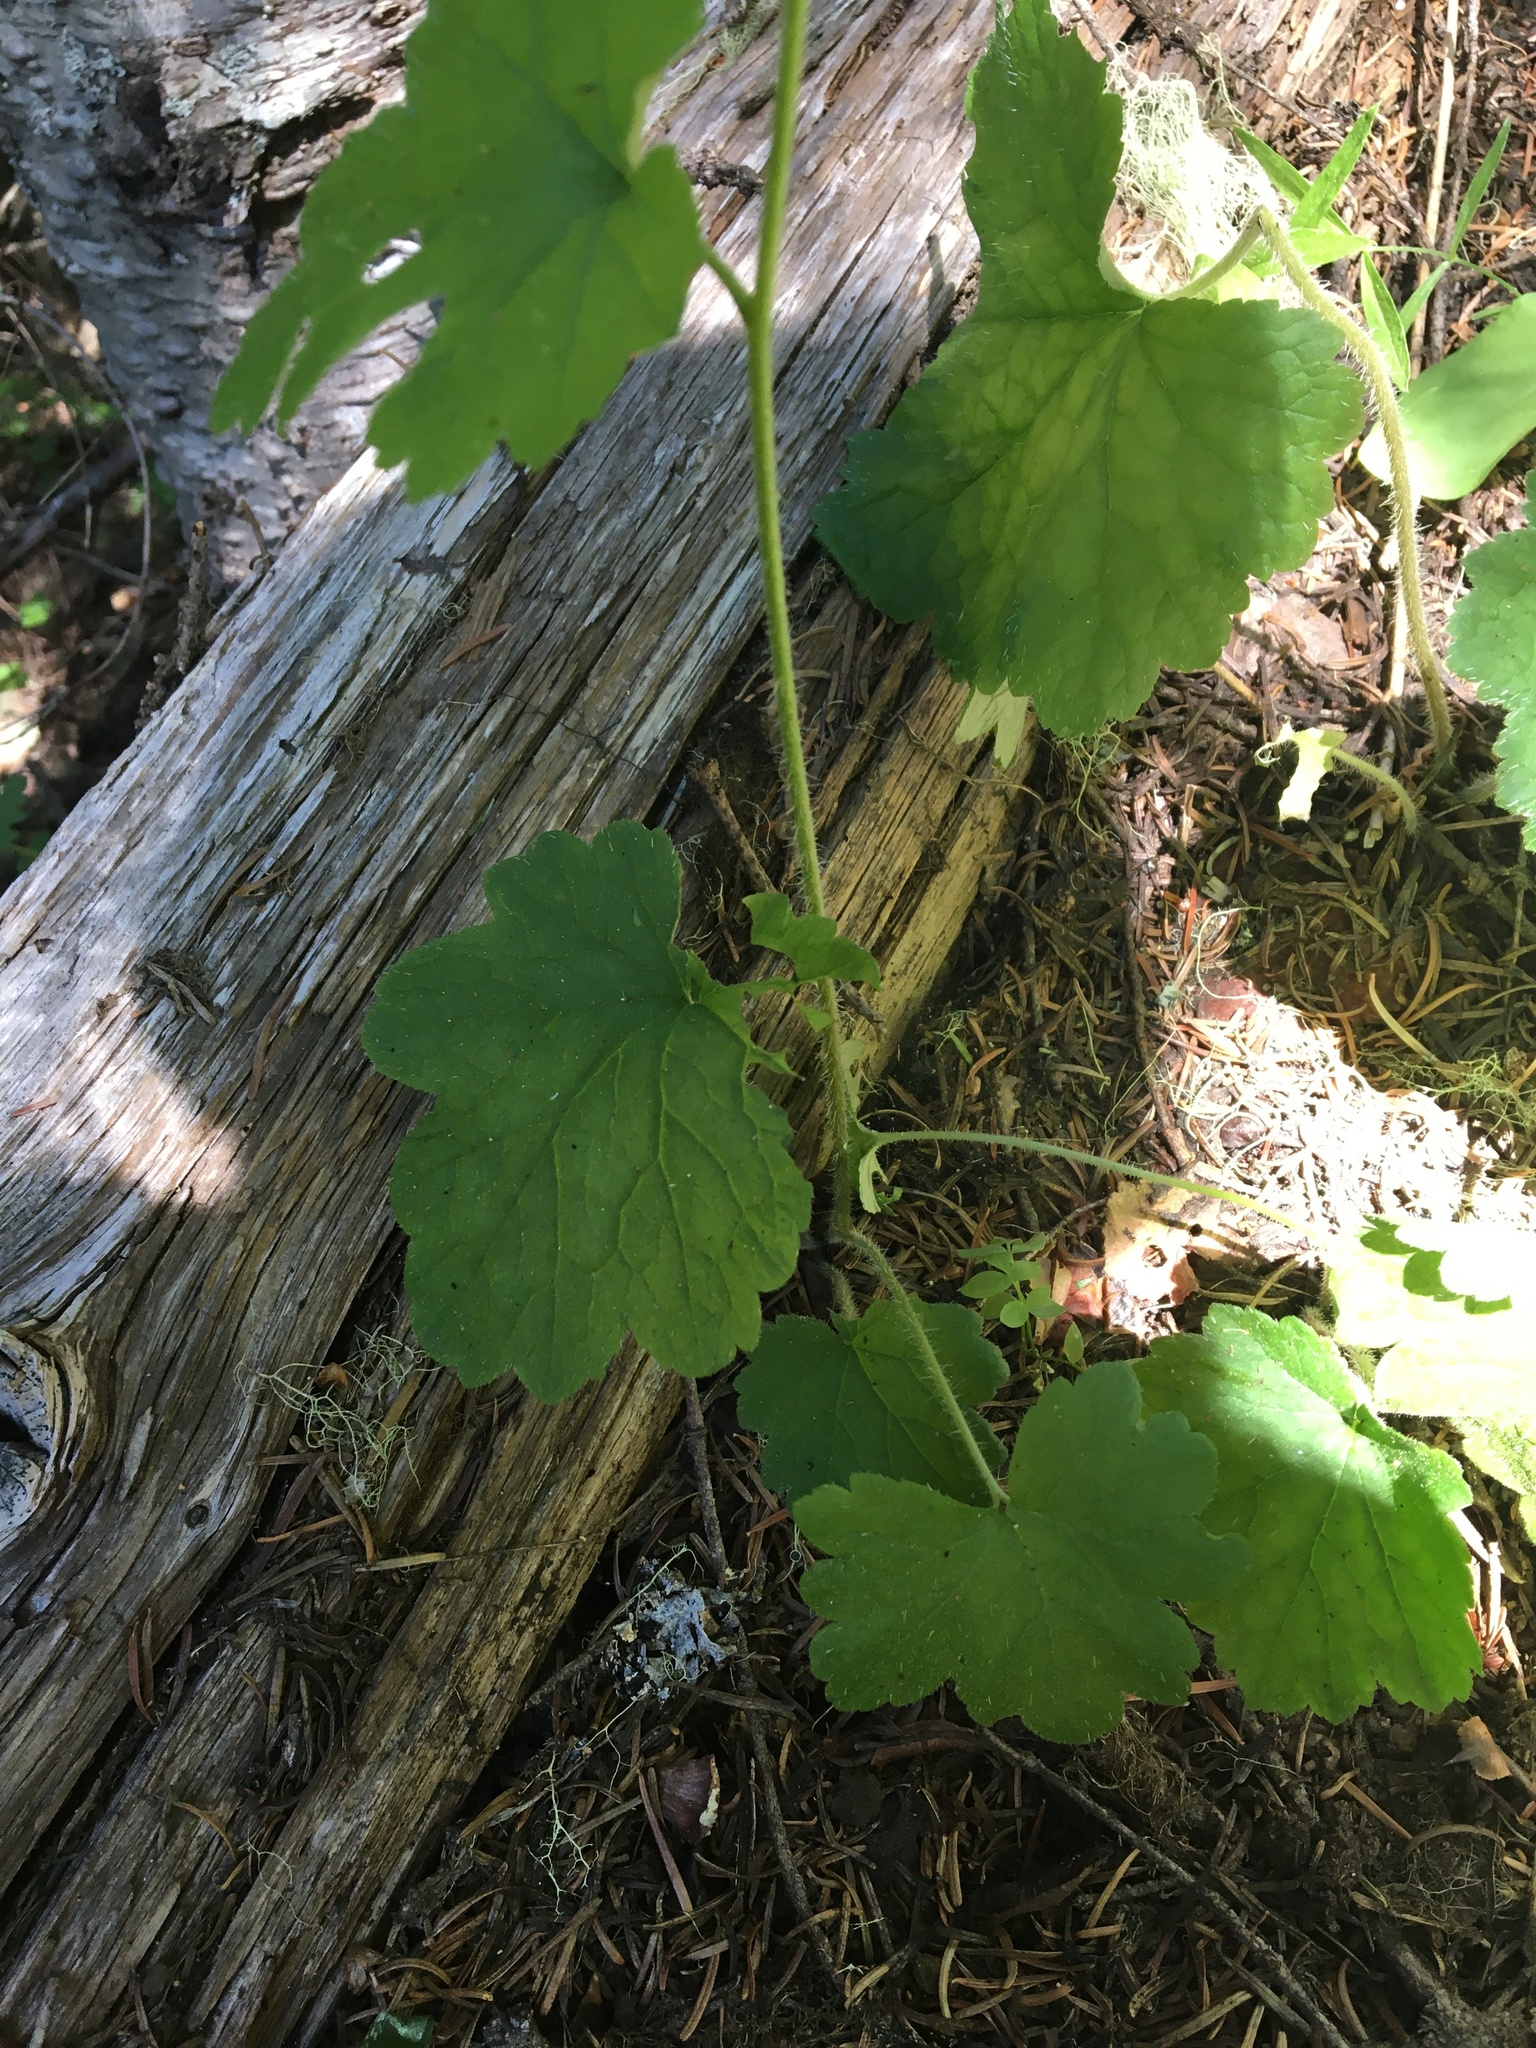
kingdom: Plantae
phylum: Tracheophyta
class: Magnoliopsida
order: Saxifragales
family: Saxifragaceae
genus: Tellima
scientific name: Tellima grandiflora
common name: Fringecups
